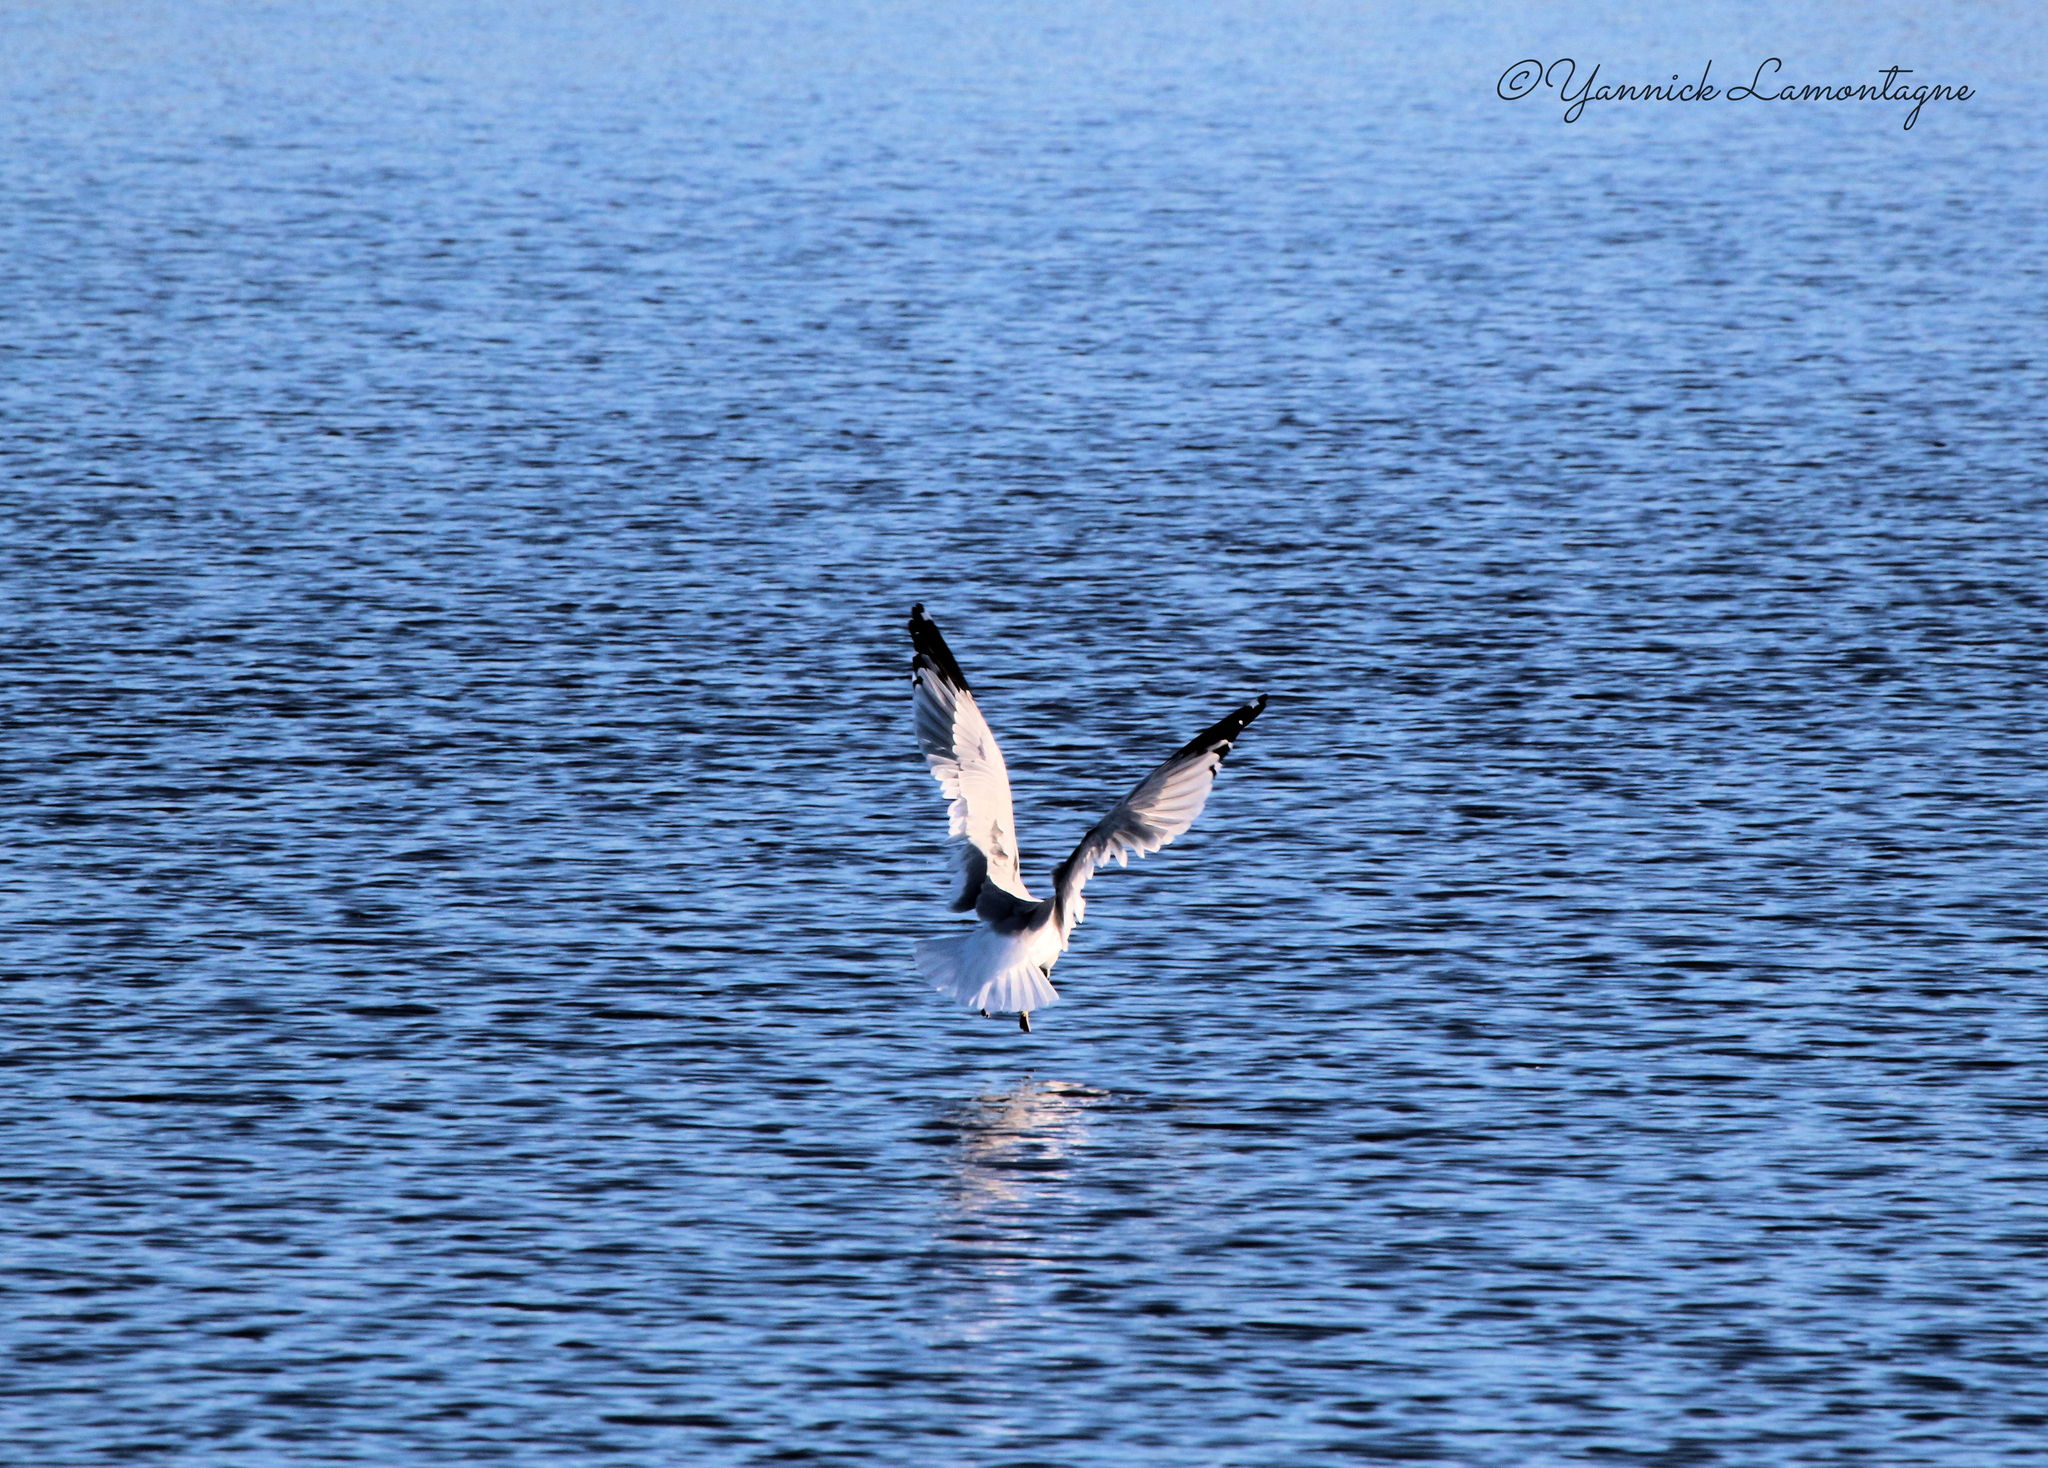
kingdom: Animalia
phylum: Chordata
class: Aves
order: Charadriiformes
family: Laridae
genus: Larus
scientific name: Larus delawarensis
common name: Ring-billed gull
